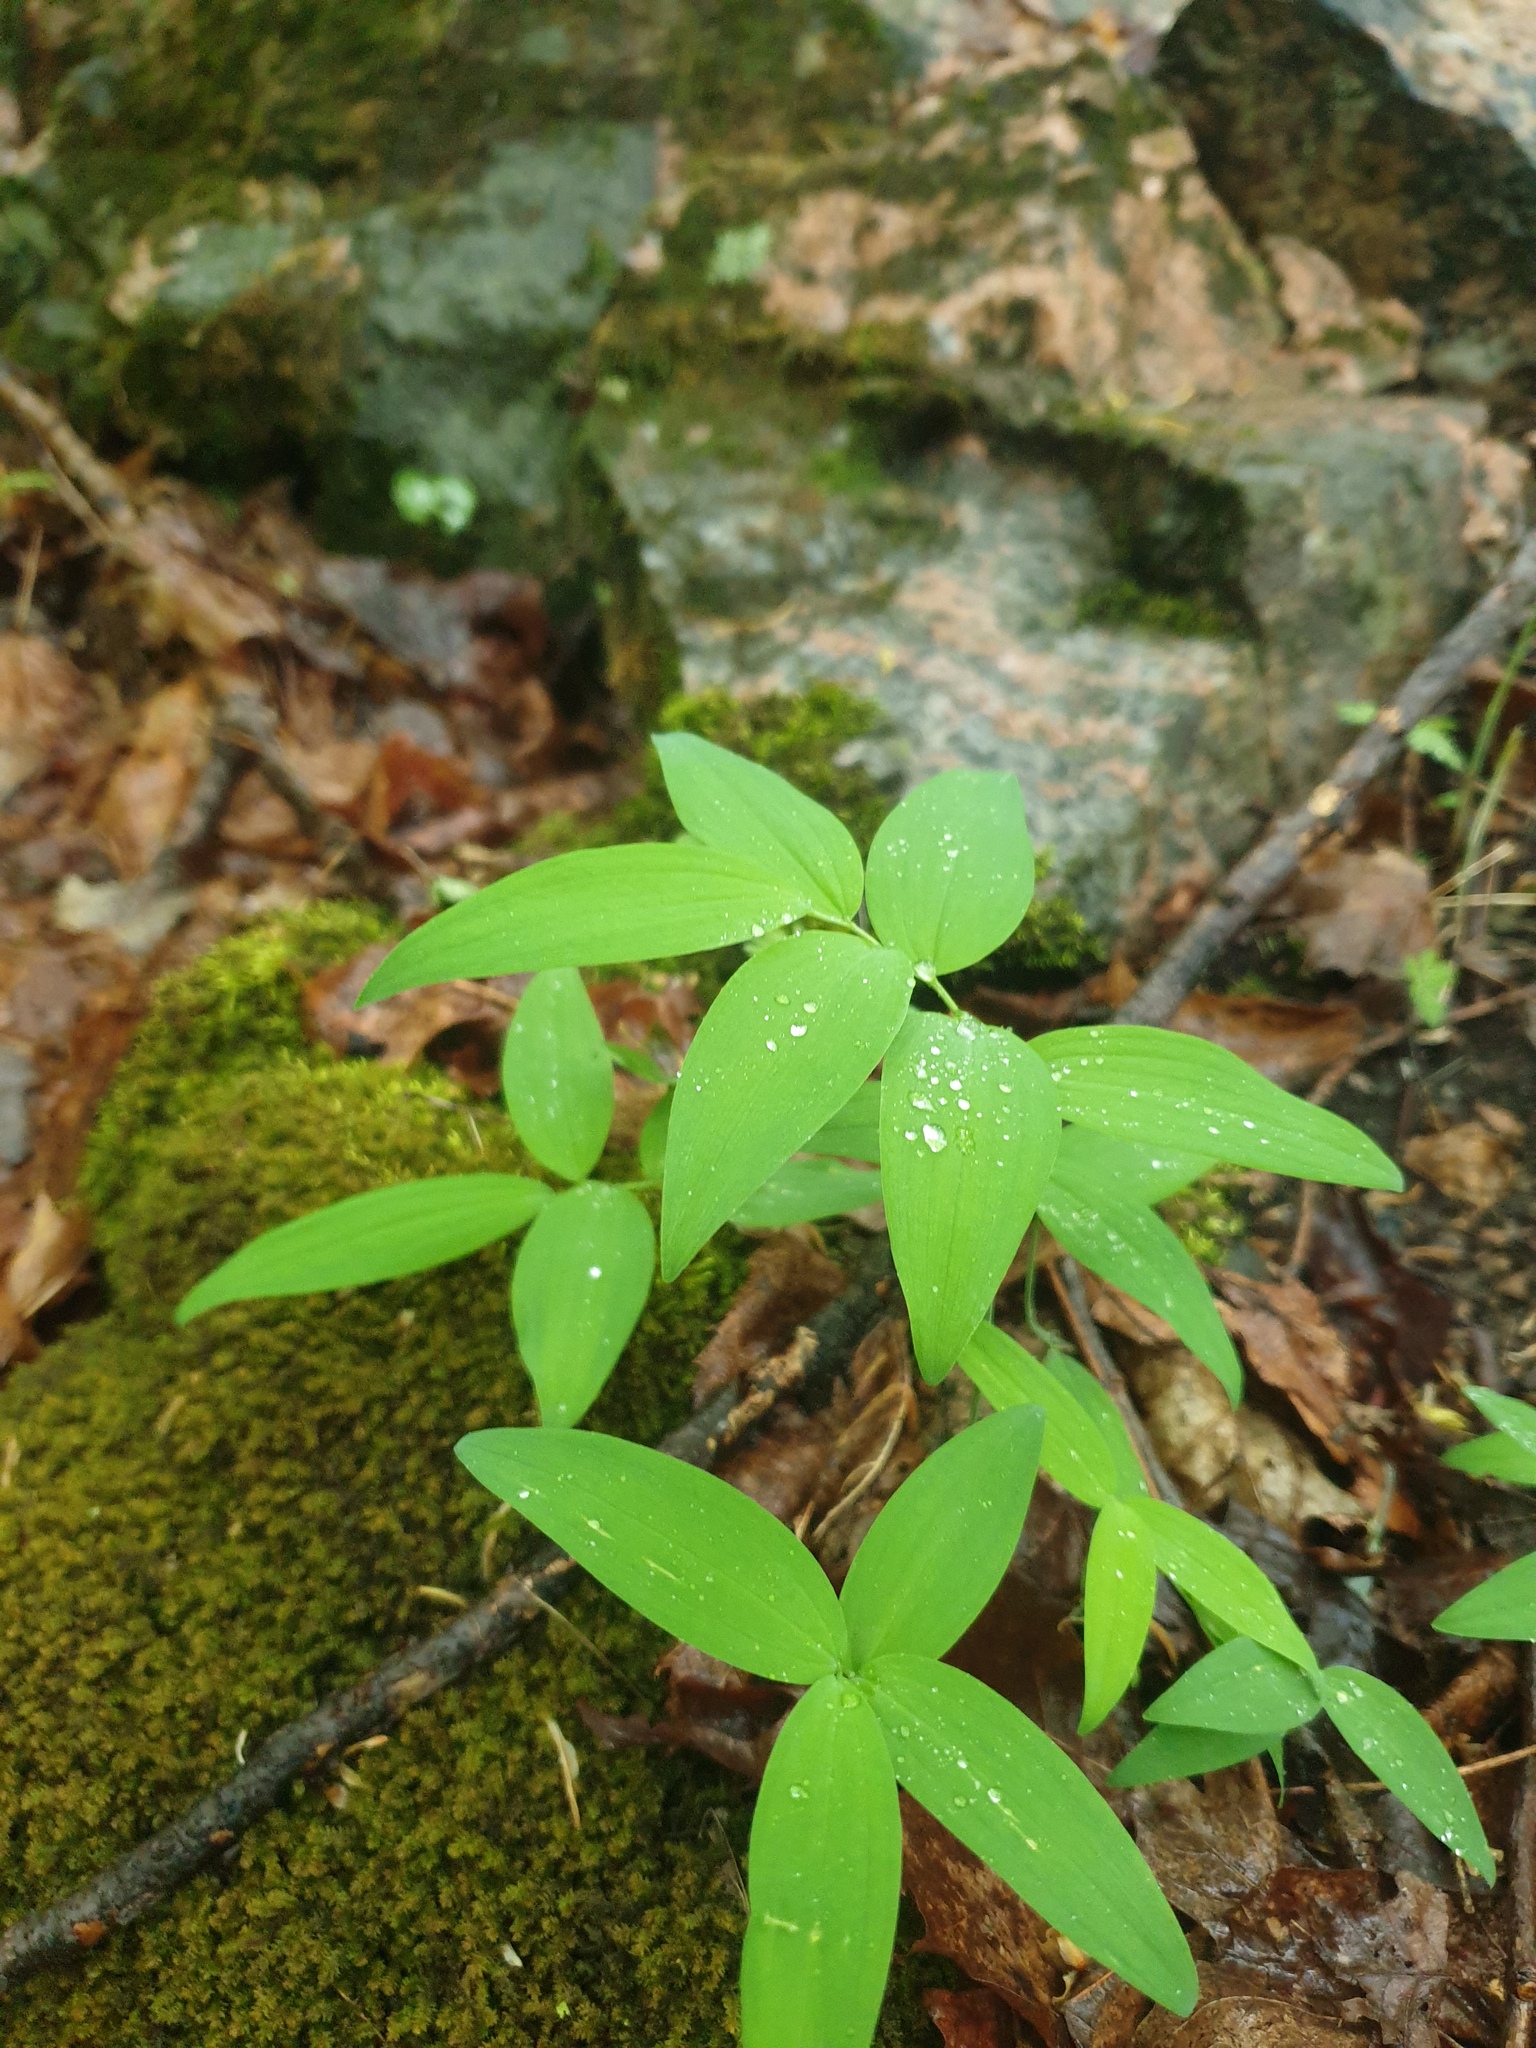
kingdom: Plantae
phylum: Tracheophyta
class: Liliopsida
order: Asparagales
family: Asparagaceae
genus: Polygonatum
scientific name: Polygonatum pubescens
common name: Downy solomon's seal
